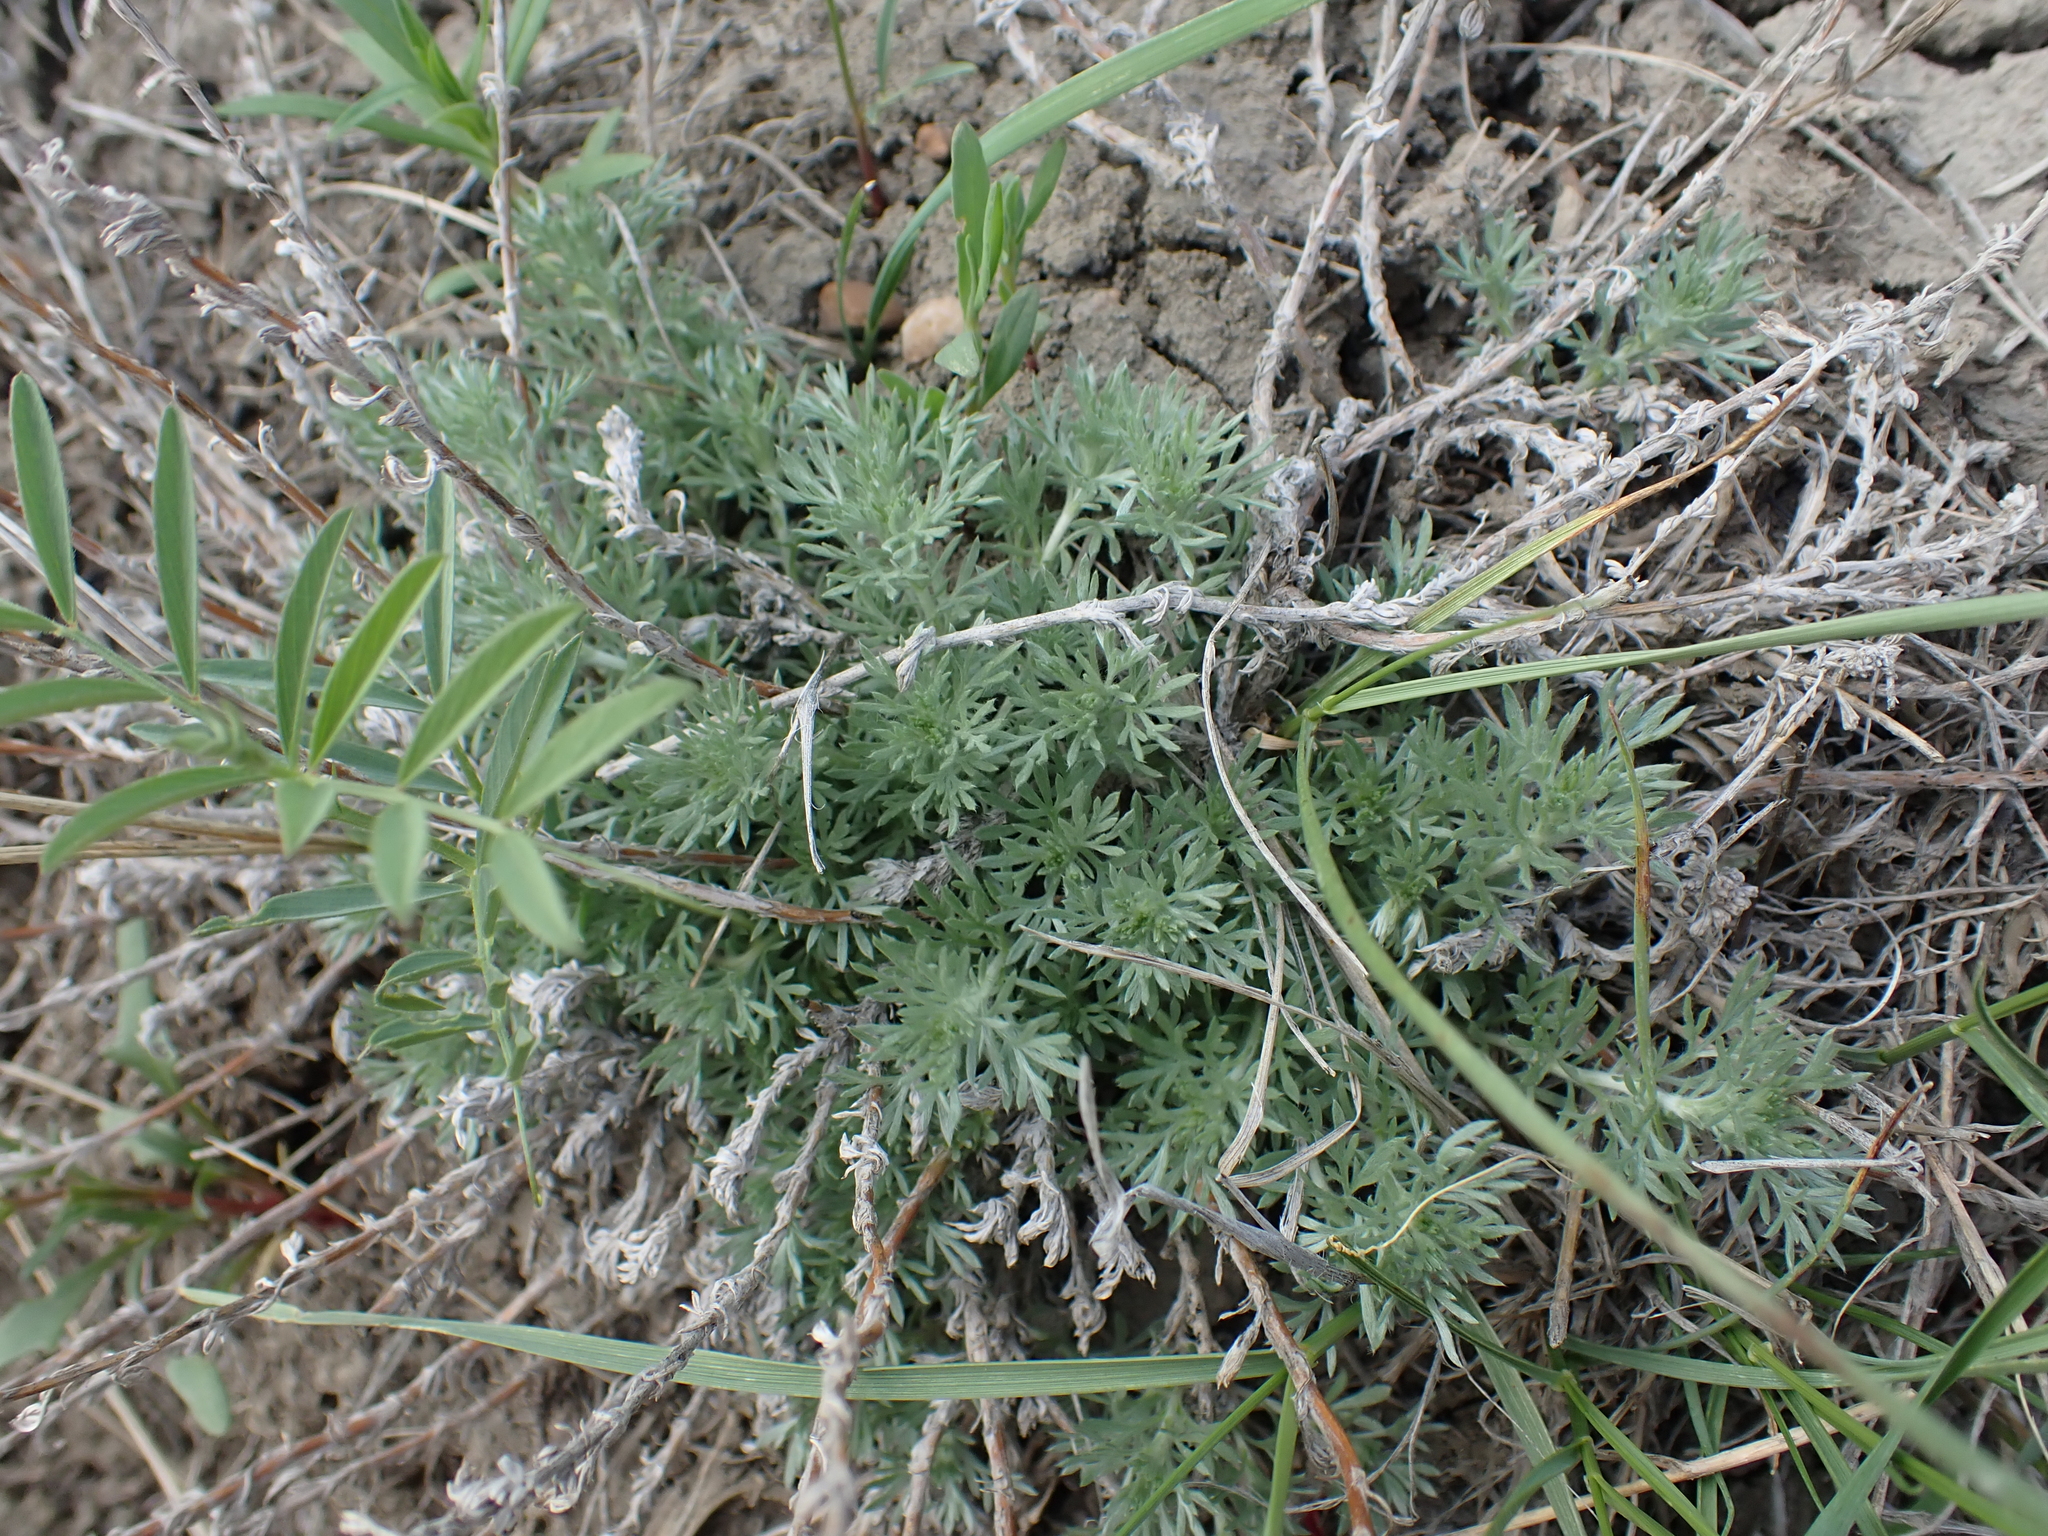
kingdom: Plantae
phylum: Tracheophyta
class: Magnoliopsida
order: Asterales
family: Asteraceae
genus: Artemisia
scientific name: Artemisia frigida
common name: Prairie sagewort
